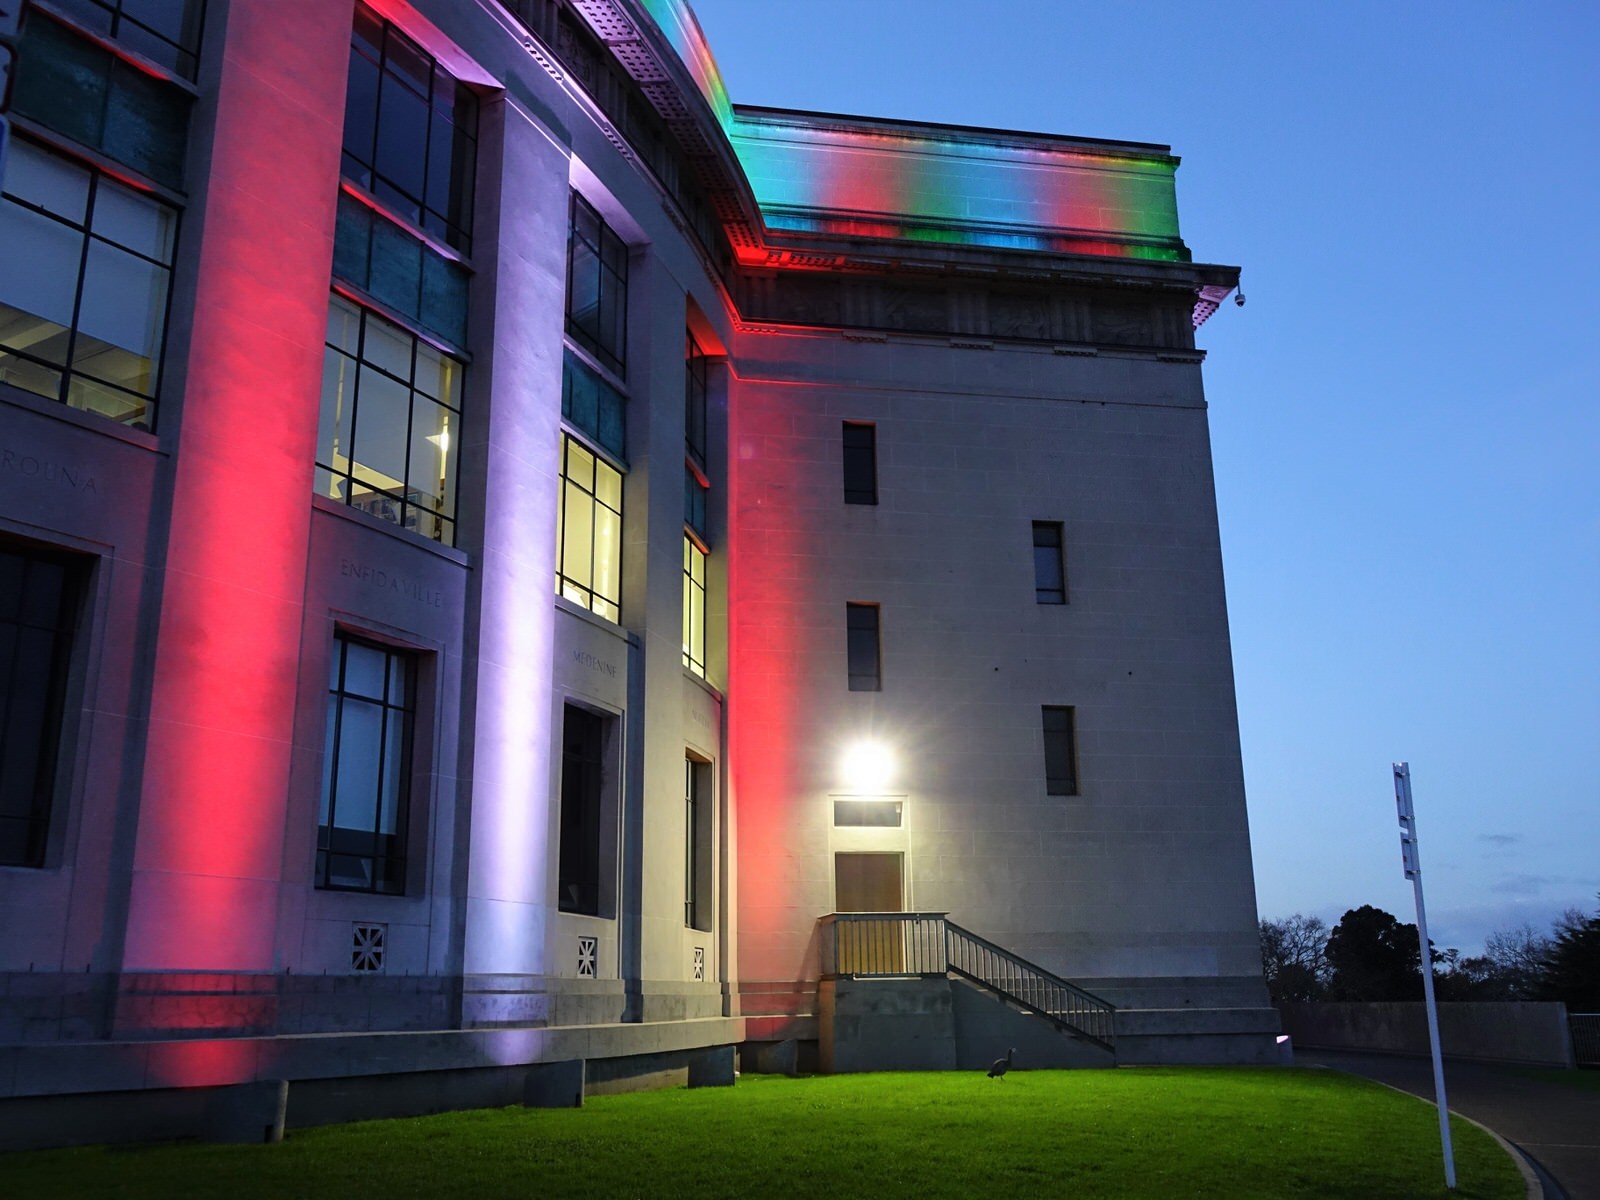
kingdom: Animalia
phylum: Chordata
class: Aves
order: Pelecaniformes
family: Ardeidae
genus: Egretta
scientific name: Egretta novaehollandiae
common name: White-faced heron
